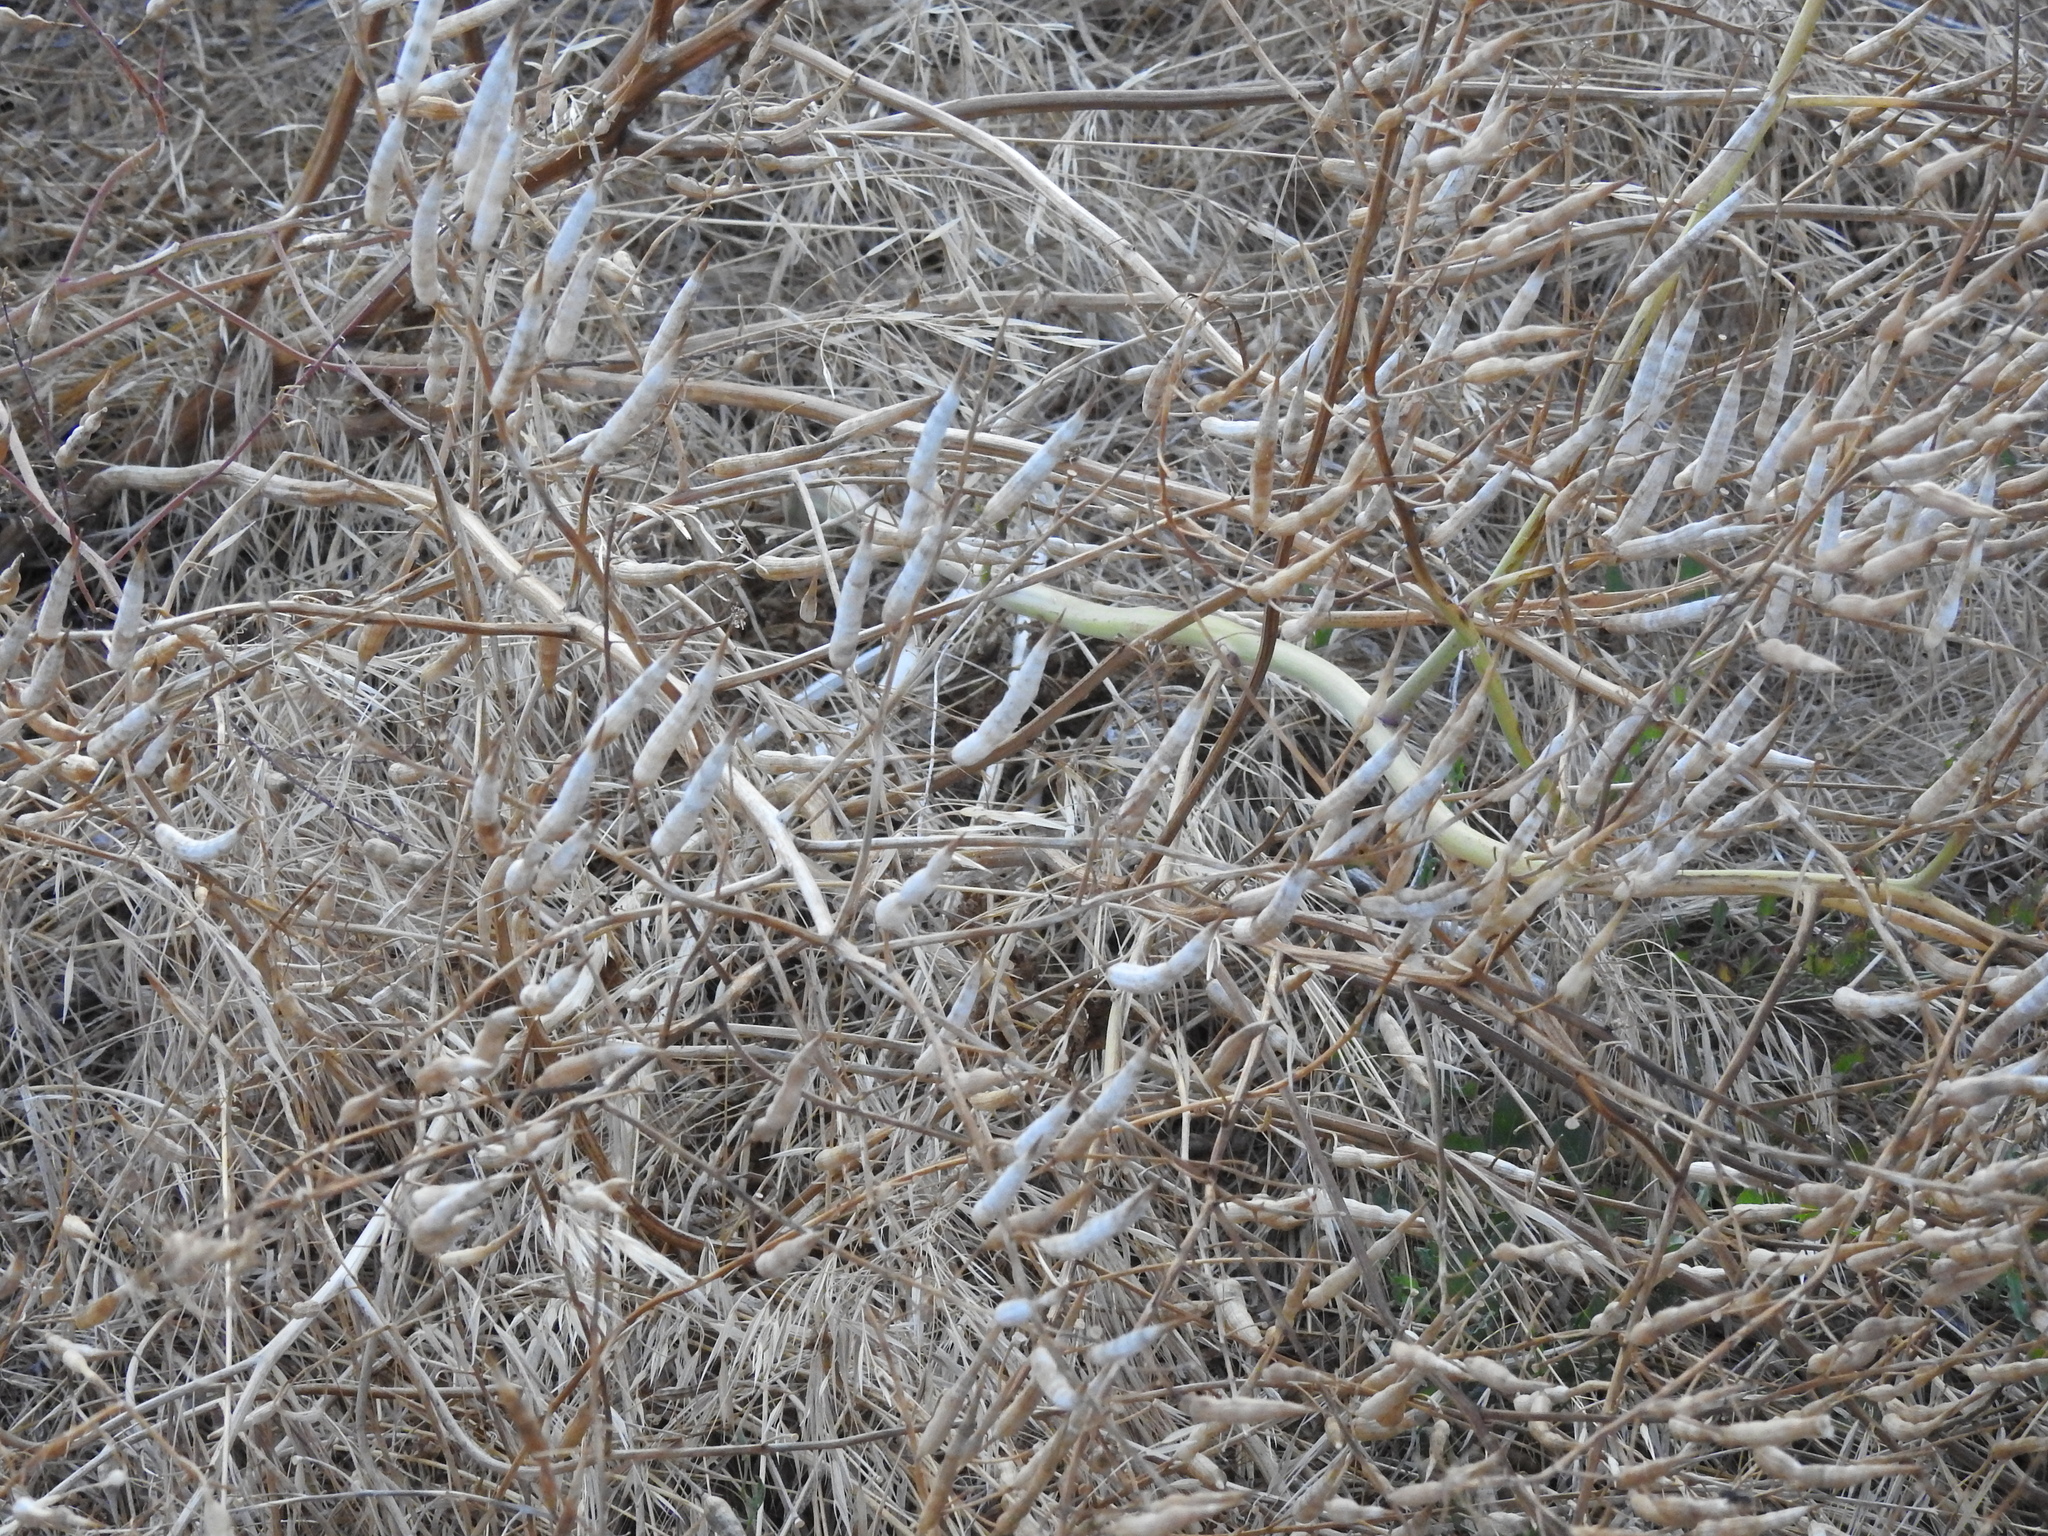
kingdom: Plantae
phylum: Tracheophyta
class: Magnoliopsida
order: Brassicales
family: Brassicaceae
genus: Raphanus
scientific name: Raphanus sativus
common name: Cultivated radish
